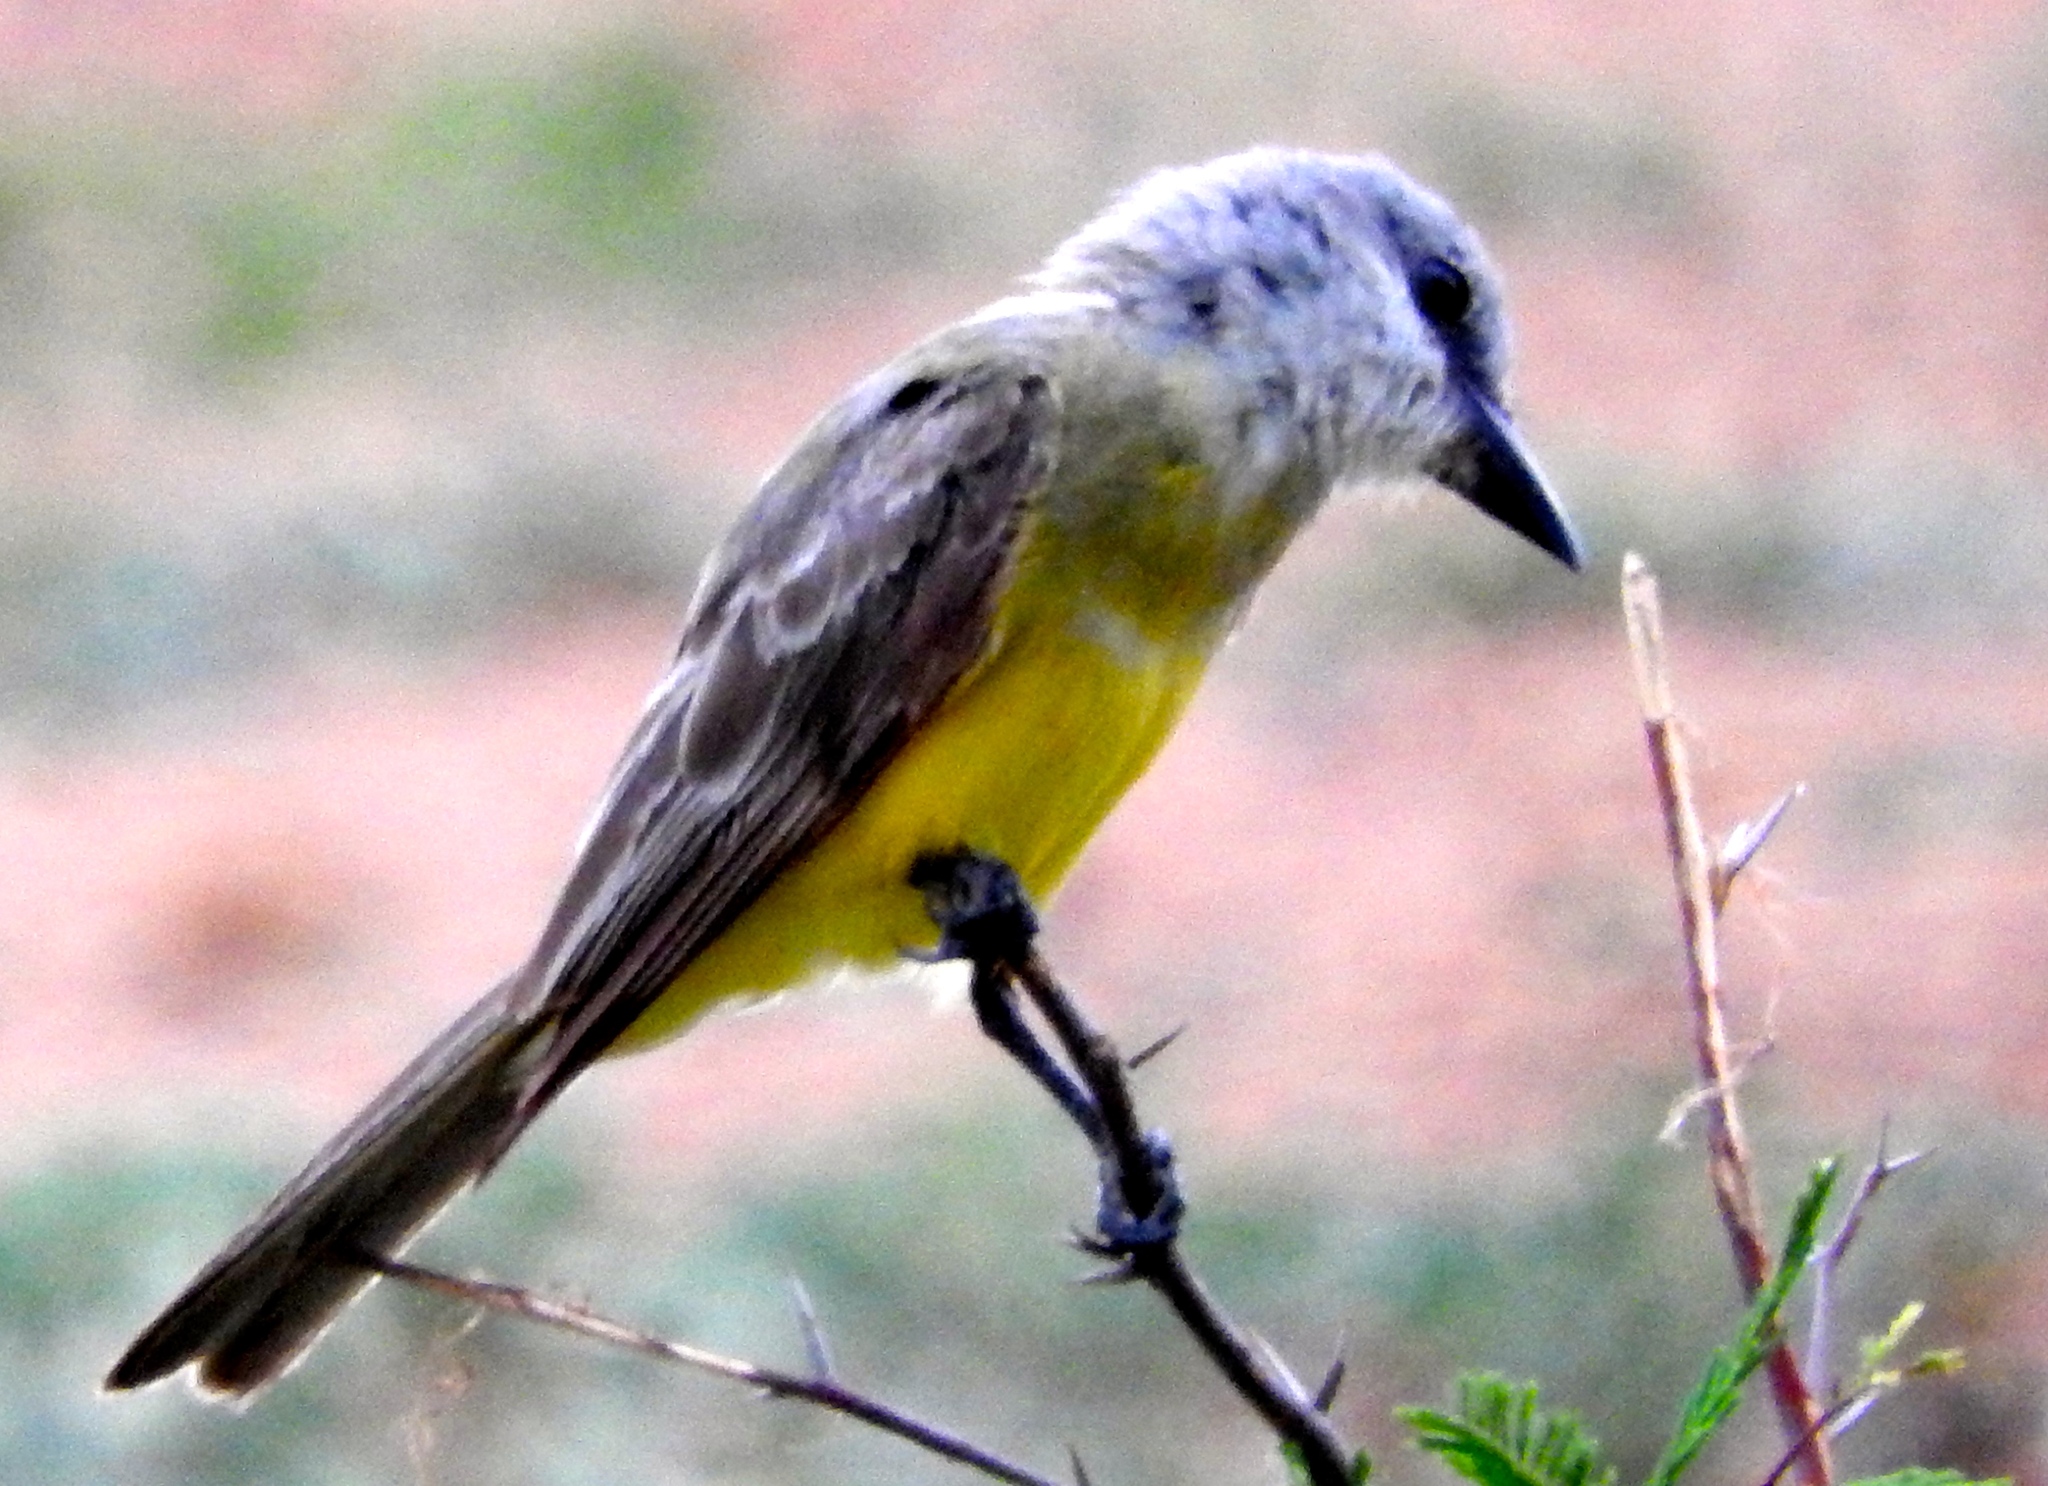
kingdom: Animalia
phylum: Chordata
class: Aves
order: Passeriformes
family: Tyrannidae
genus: Tyrannus
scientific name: Tyrannus melancholicus
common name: Tropical kingbird
